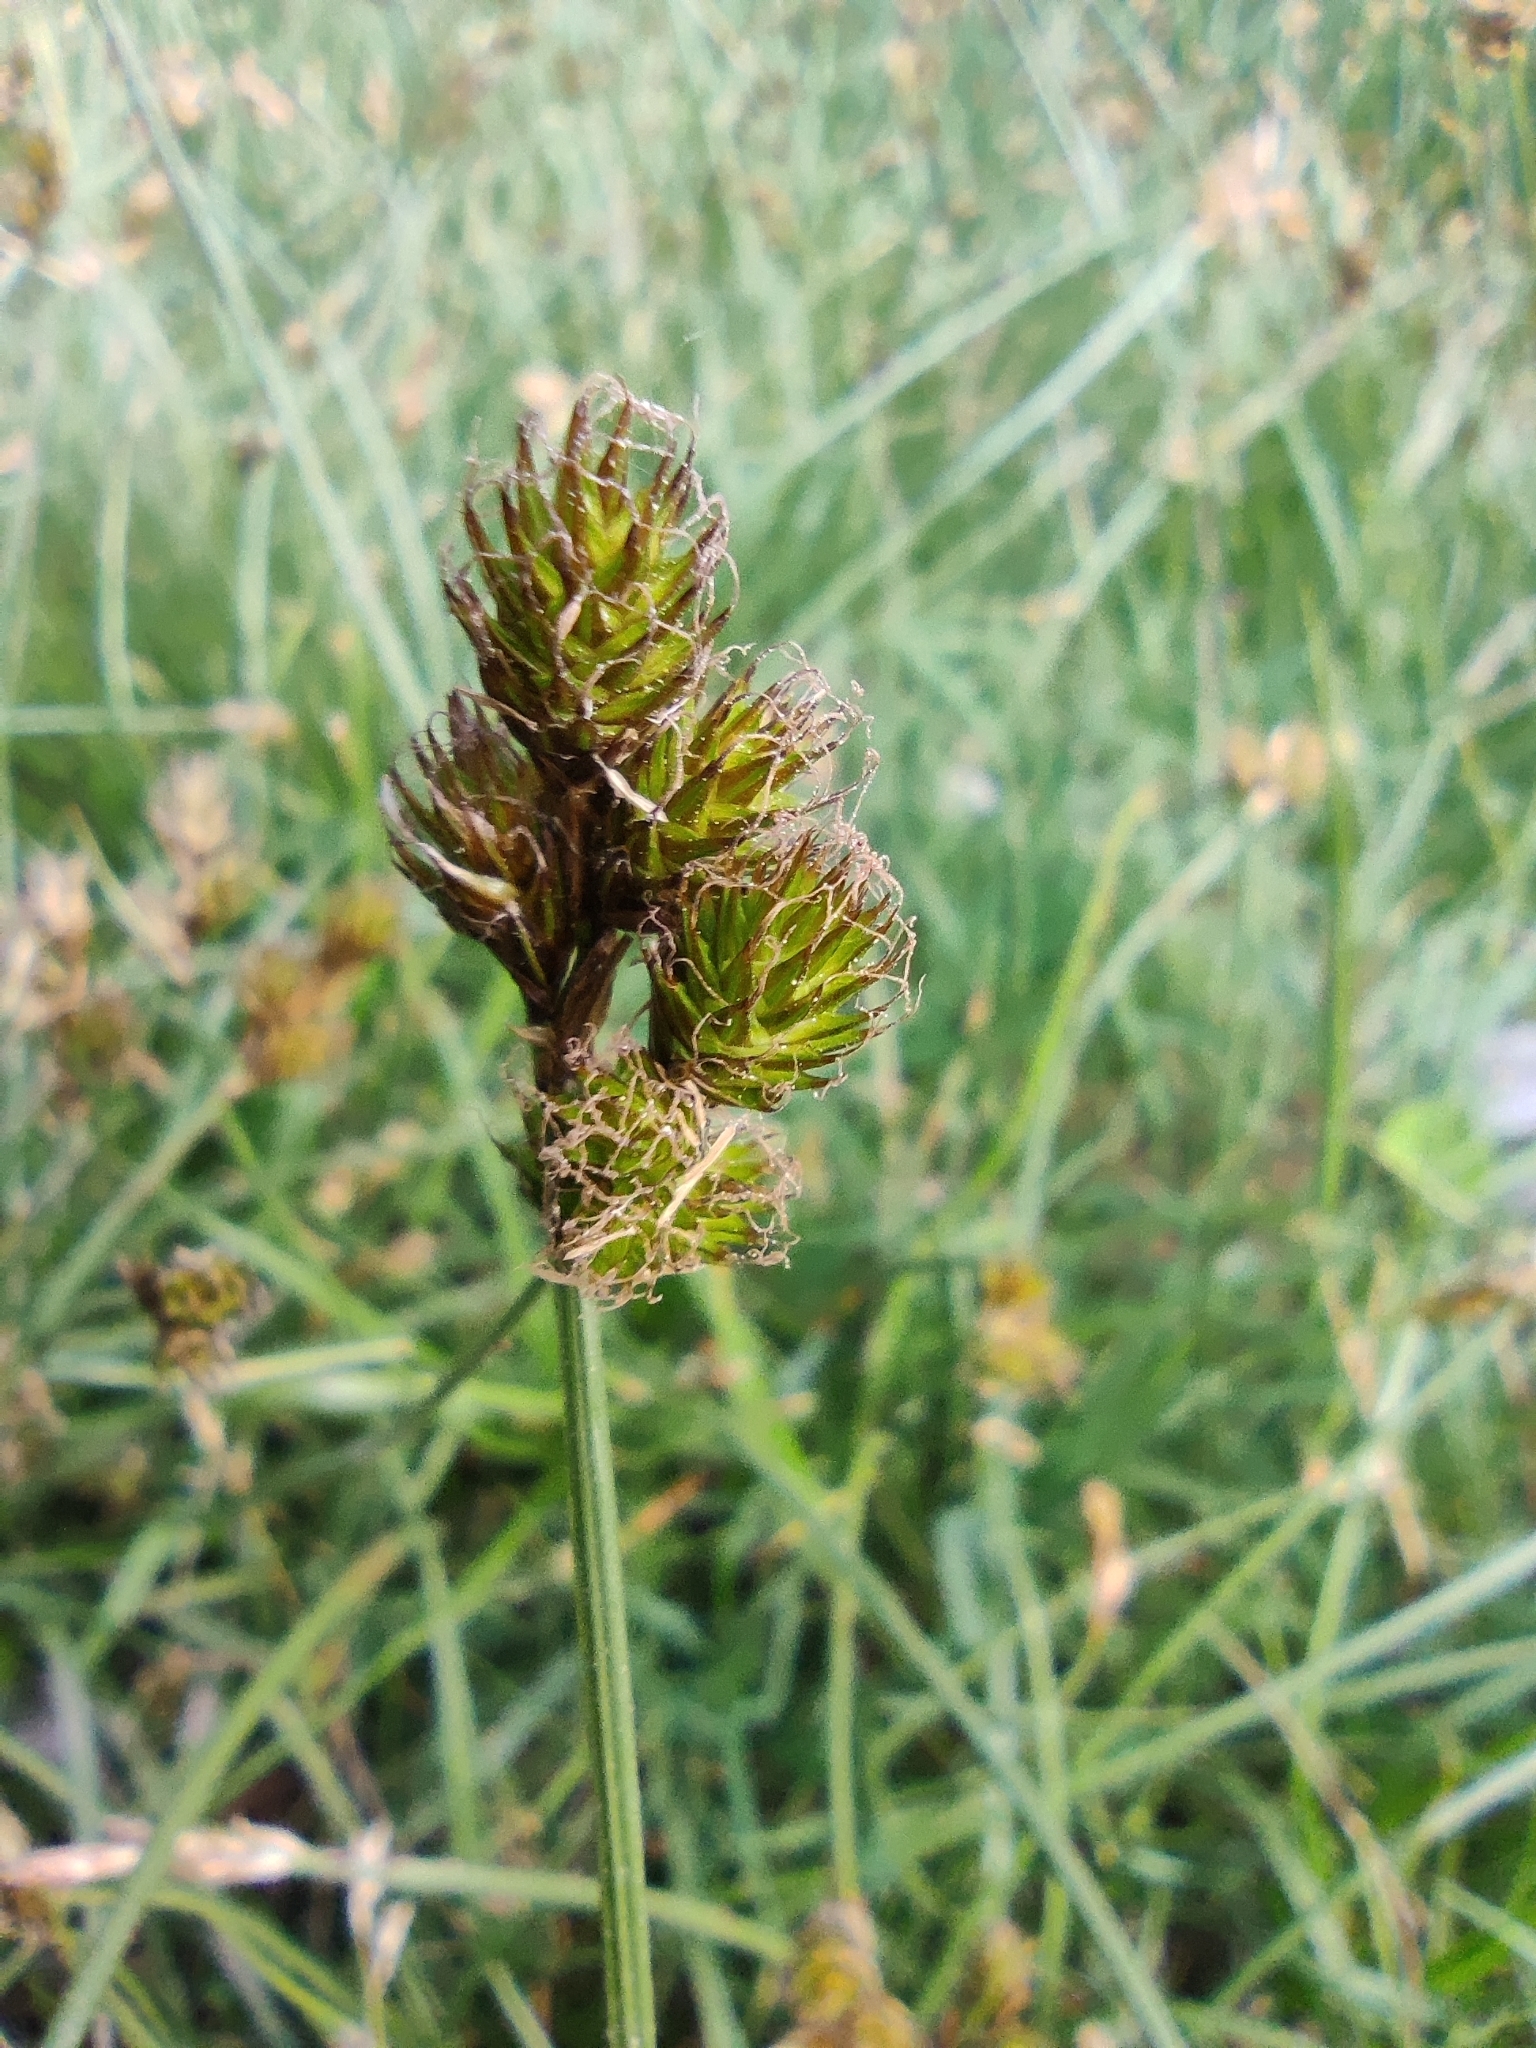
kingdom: Plantae
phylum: Tracheophyta
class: Liliopsida
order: Poales
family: Cyperaceae
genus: Carex
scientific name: Carex leporina
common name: Oval sedge
